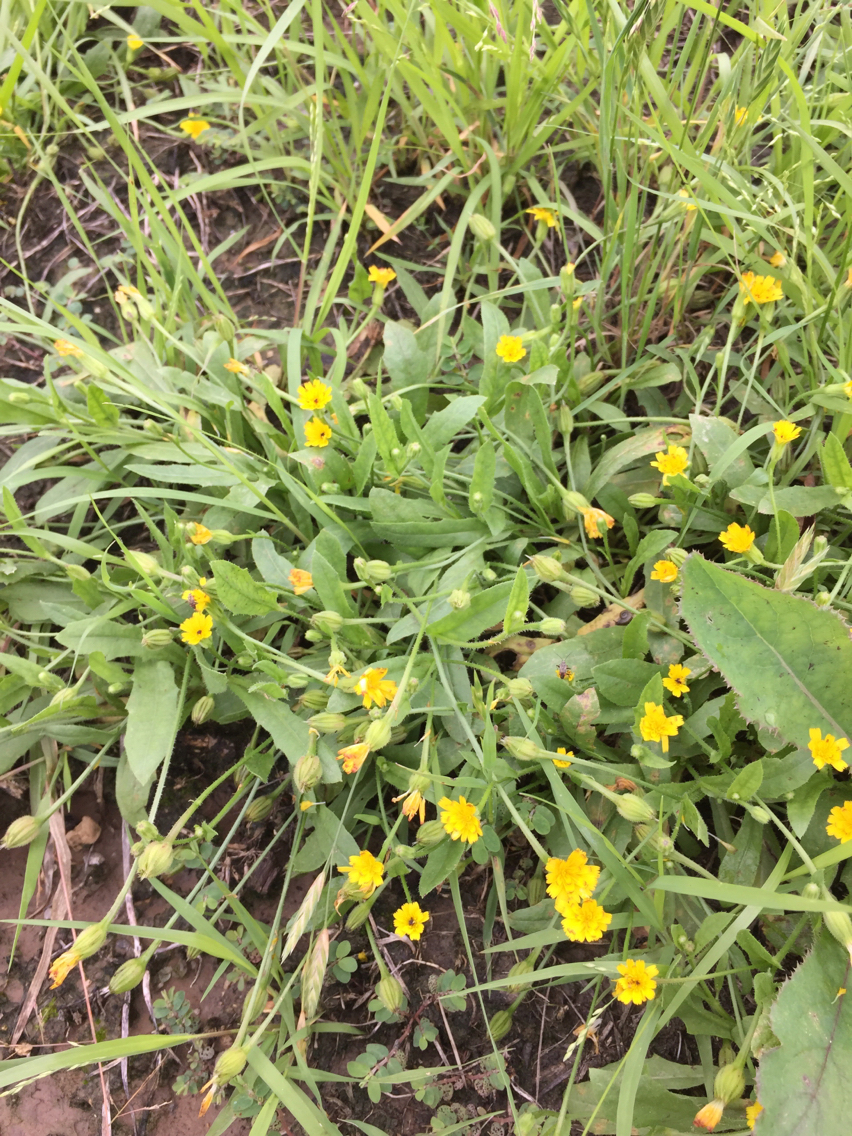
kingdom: Plantae
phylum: Tracheophyta
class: Magnoliopsida
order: Asterales
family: Asteraceae
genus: Hedypnois
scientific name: Hedypnois rhagadioloides
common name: Cretan weed
